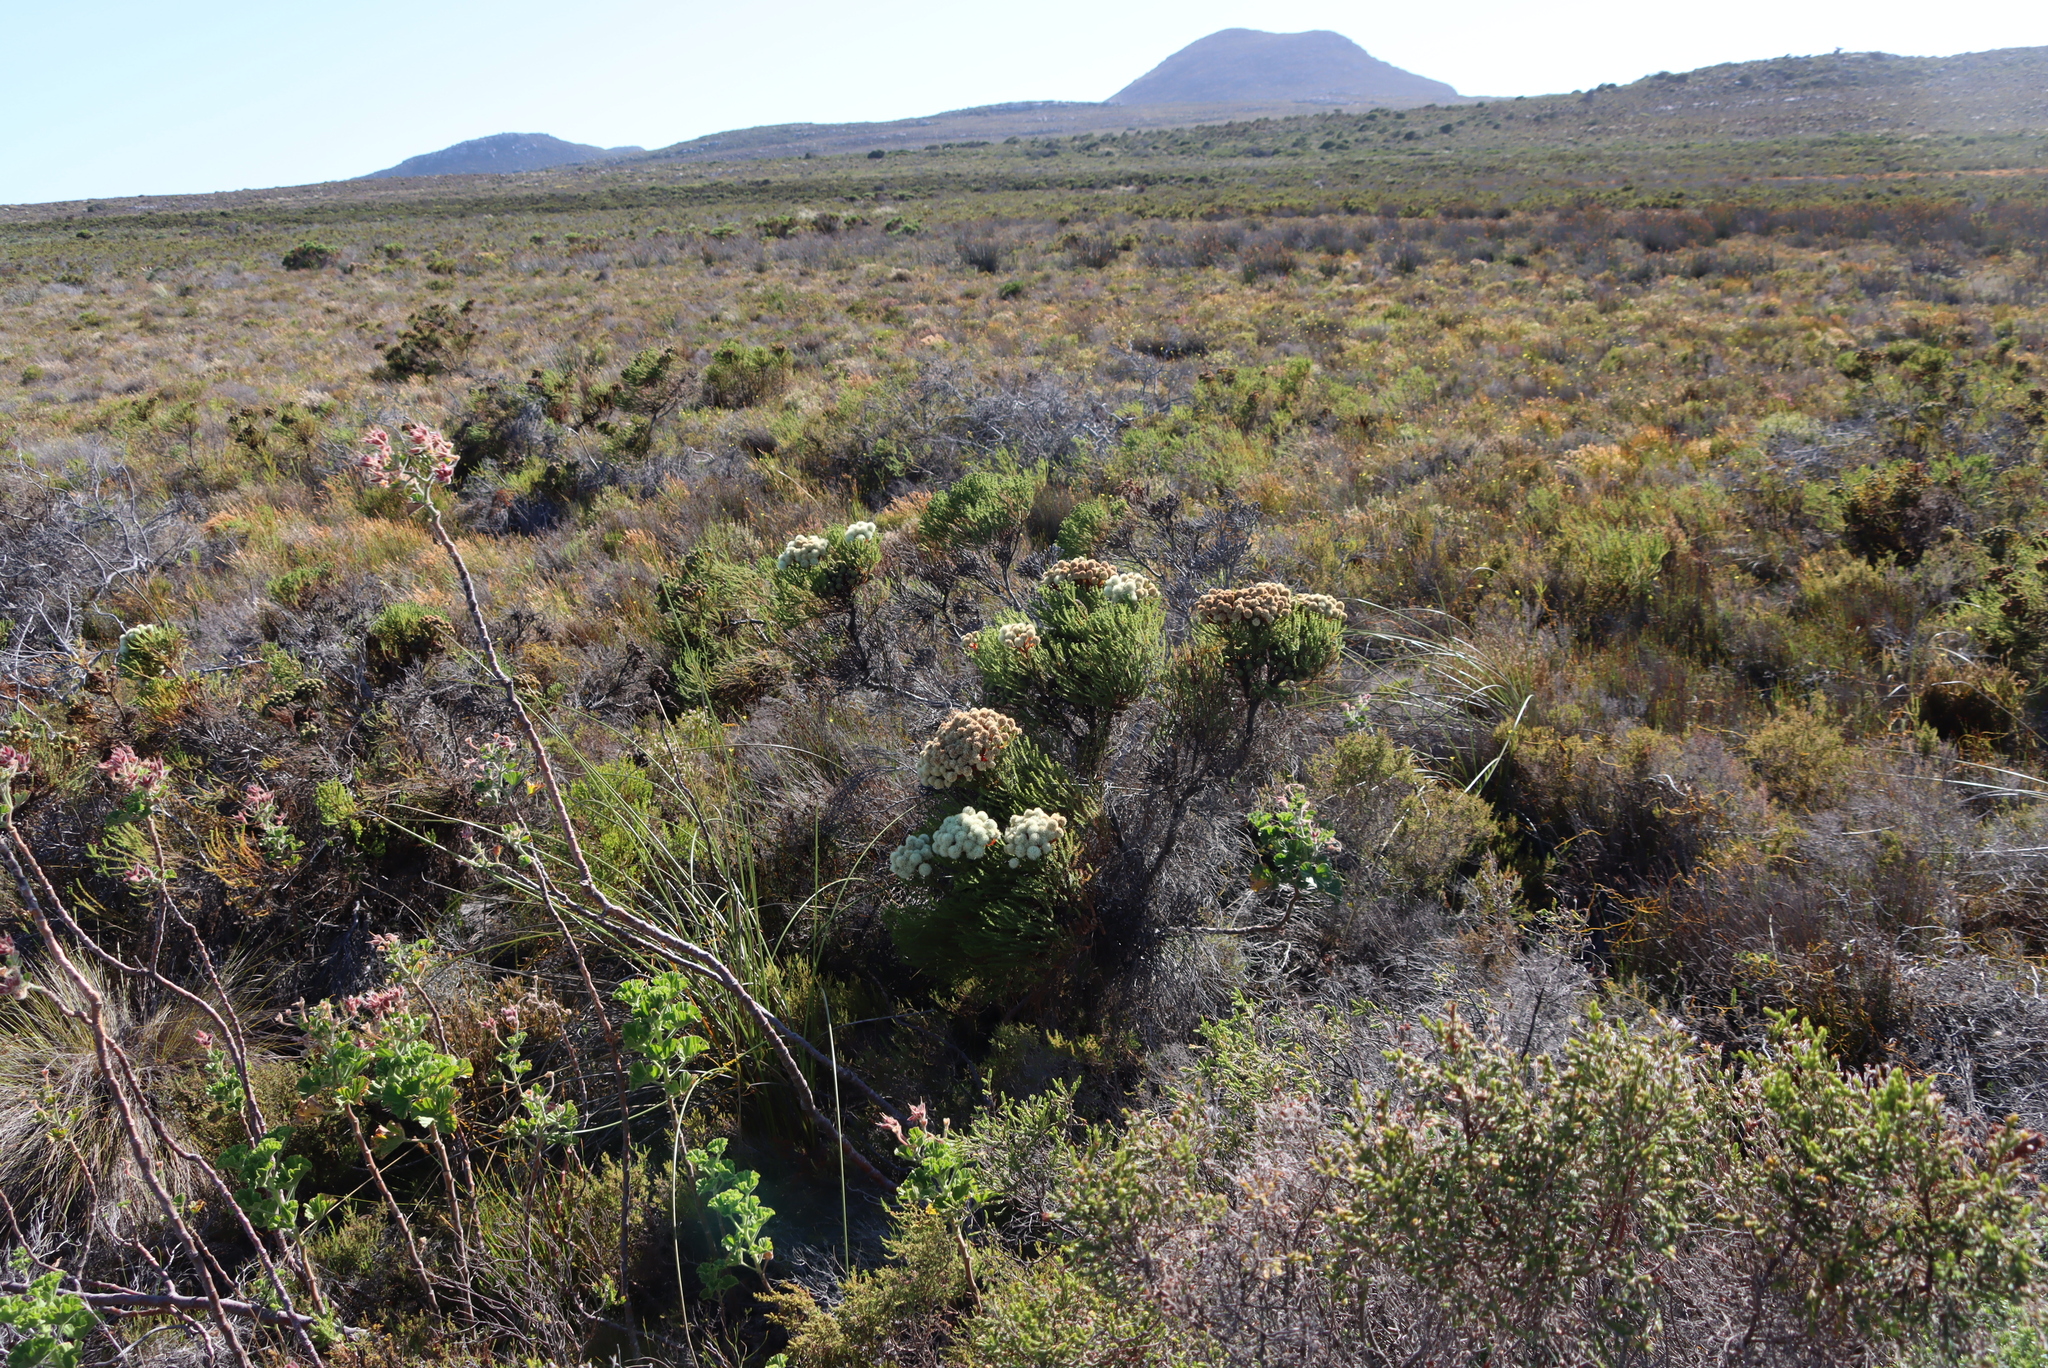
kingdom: Plantae
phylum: Tracheophyta
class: Magnoliopsida
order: Bruniales
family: Bruniaceae
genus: Berzelia
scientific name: Berzelia abrotanoides
